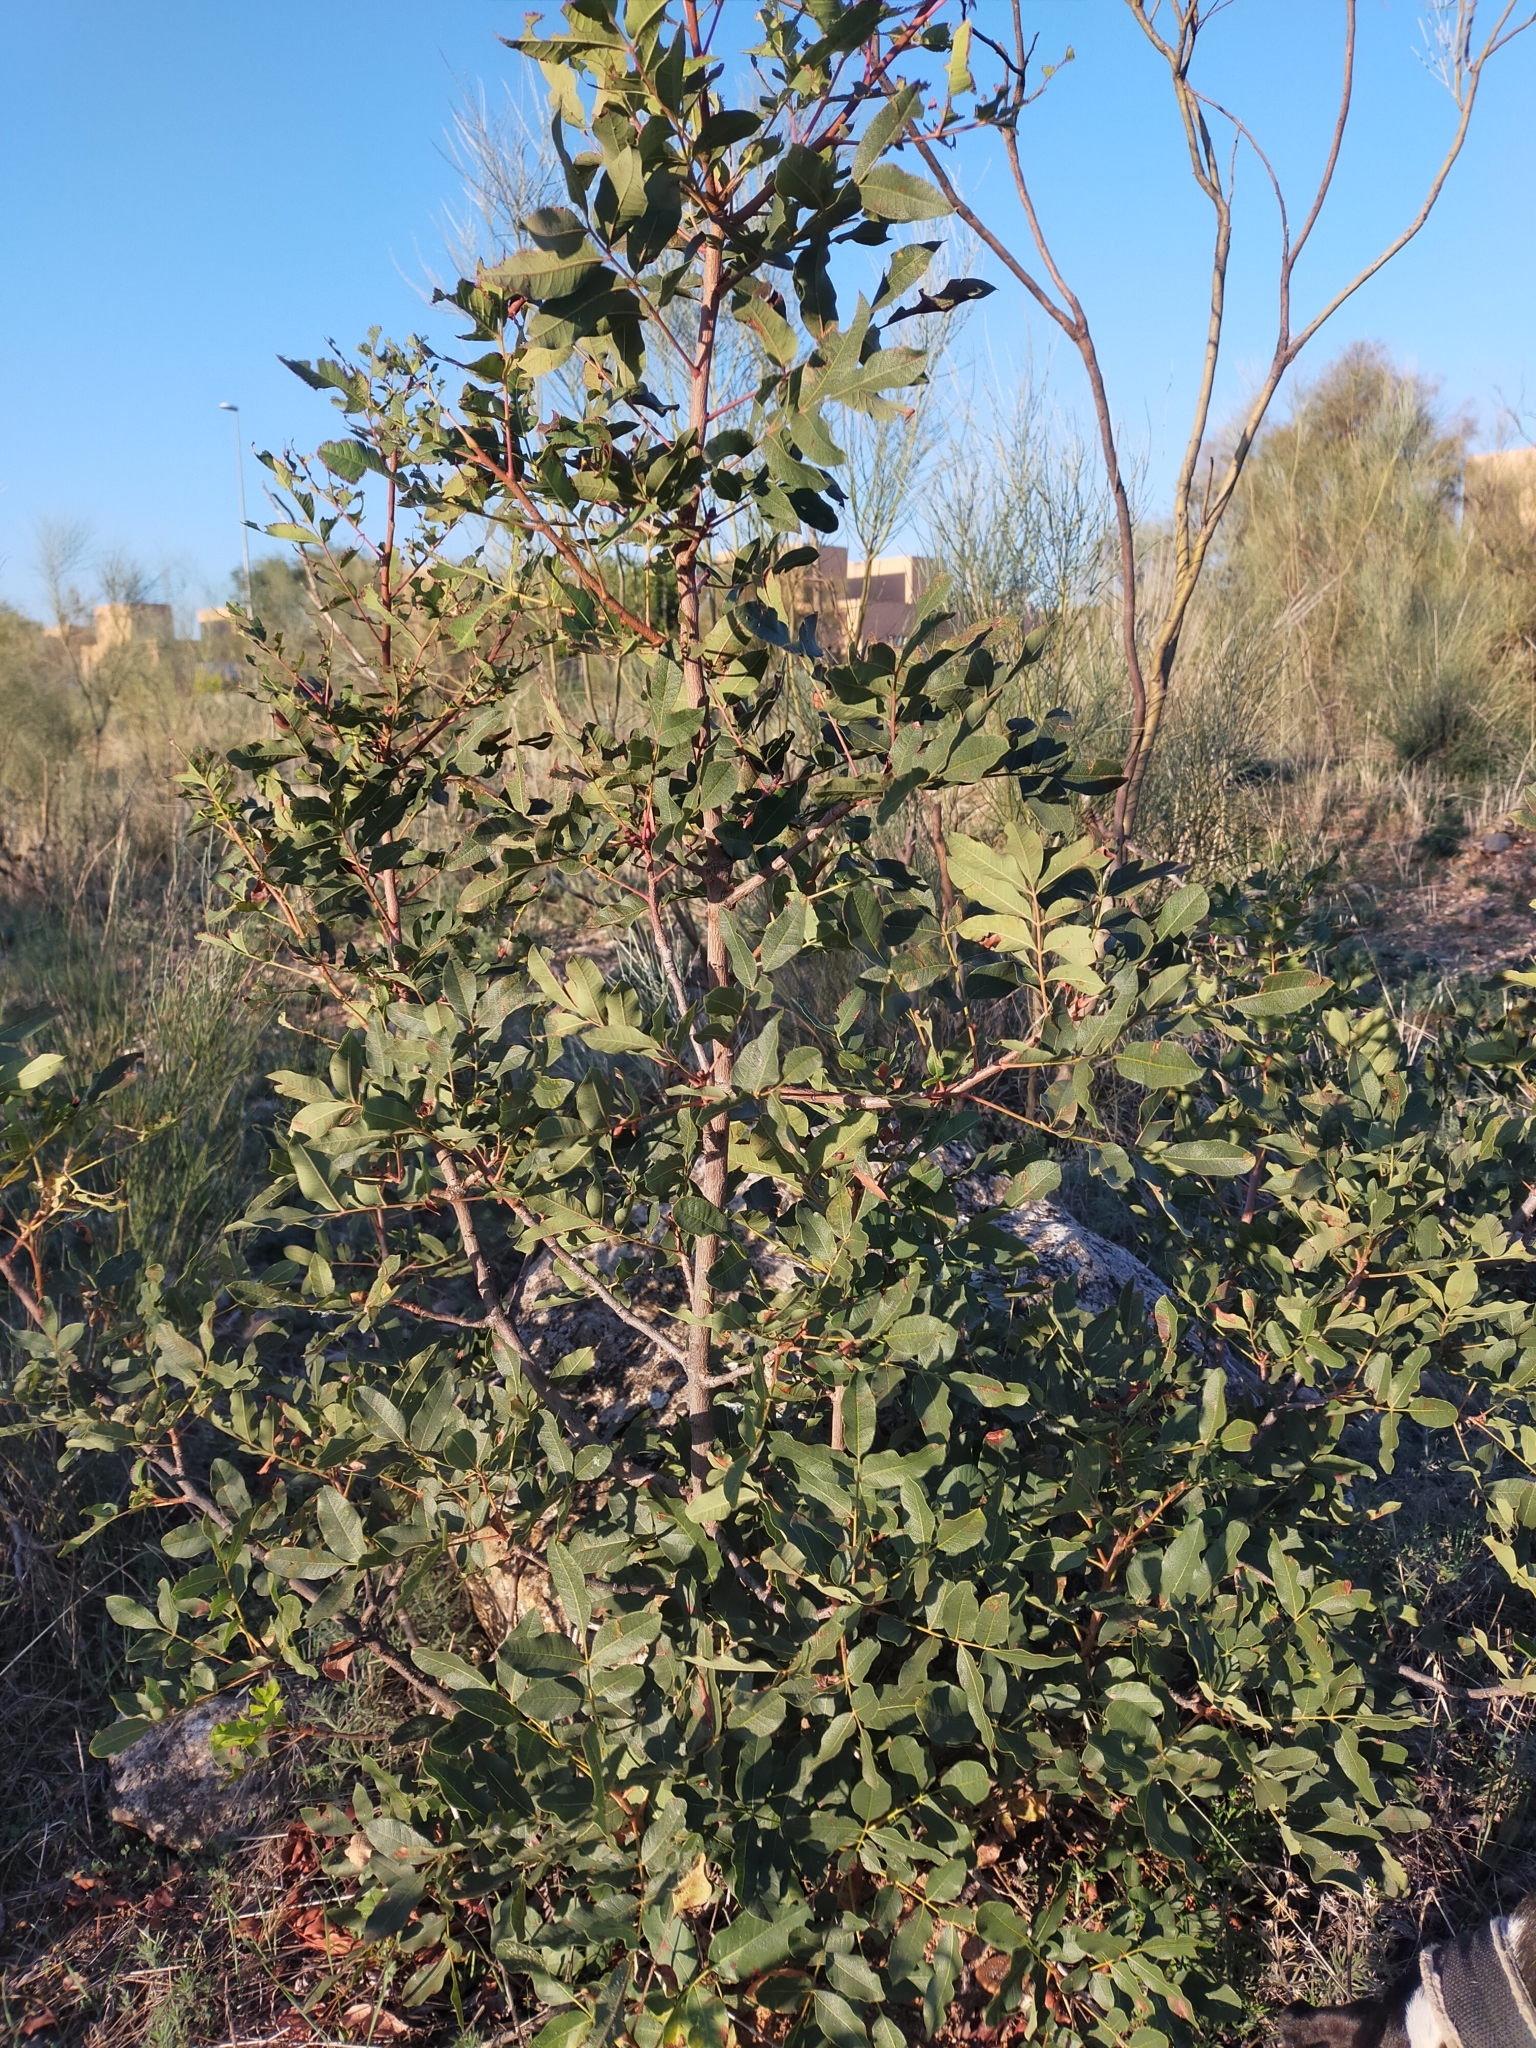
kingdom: Plantae
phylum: Tracheophyta
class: Magnoliopsida
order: Sapindales
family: Anacardiaceae
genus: Pistacia
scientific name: Pistacia terebinthus
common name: Terebinth
